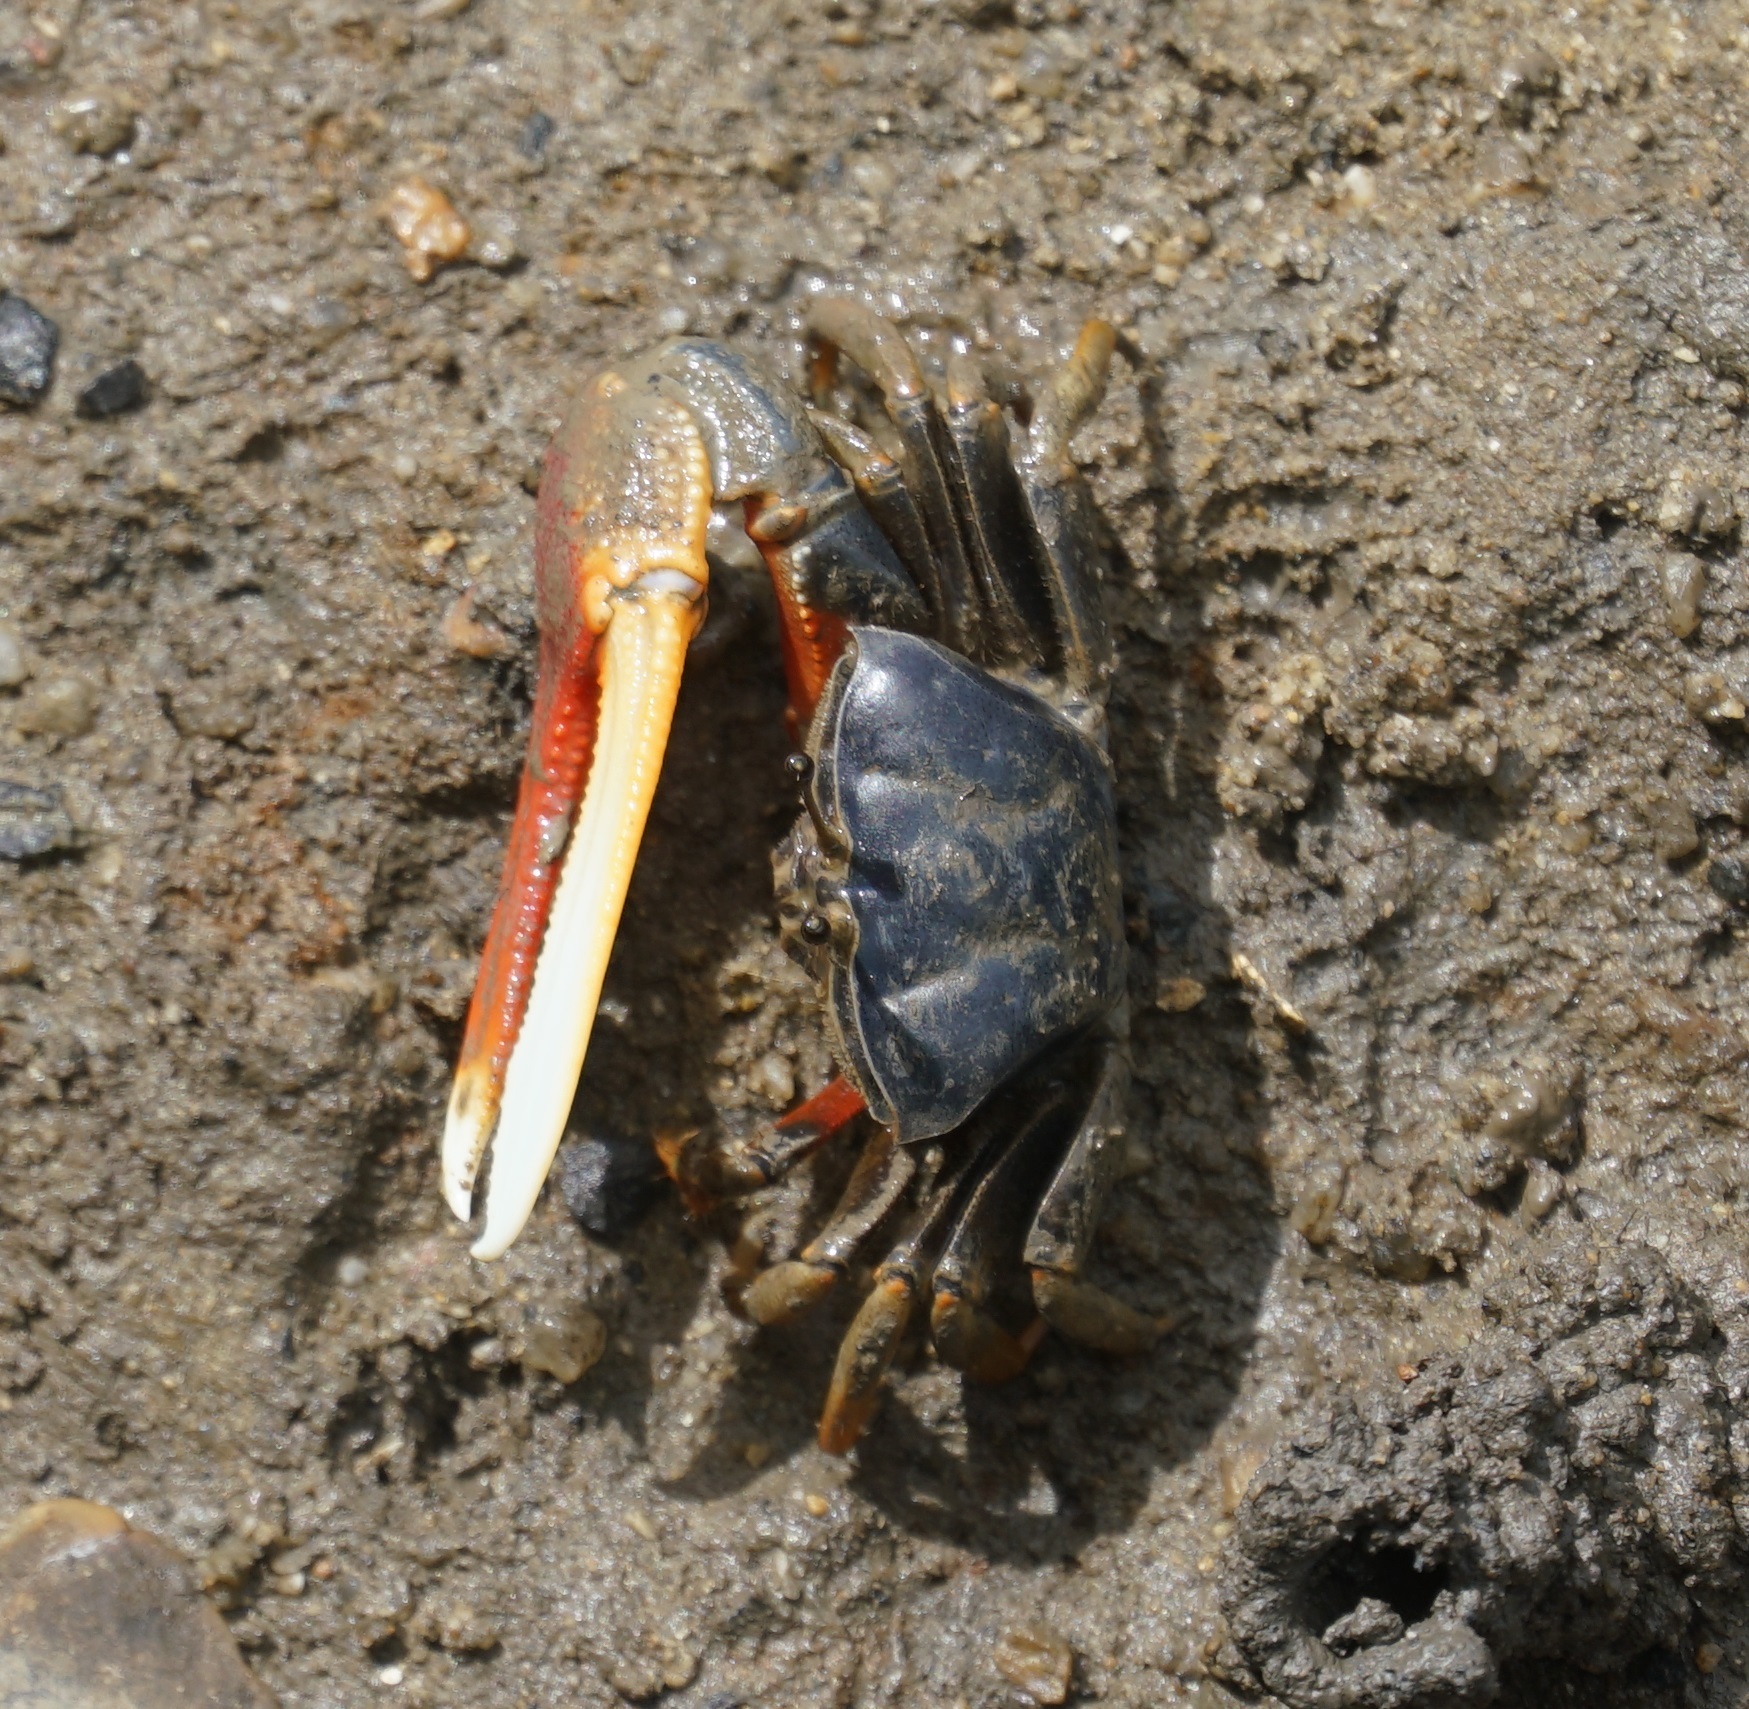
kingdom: Animalia
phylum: Arthropoda
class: Malacostraca
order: Decapoda
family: Ocypodidae
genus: Tubuca
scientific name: Tubuca dussumieri
